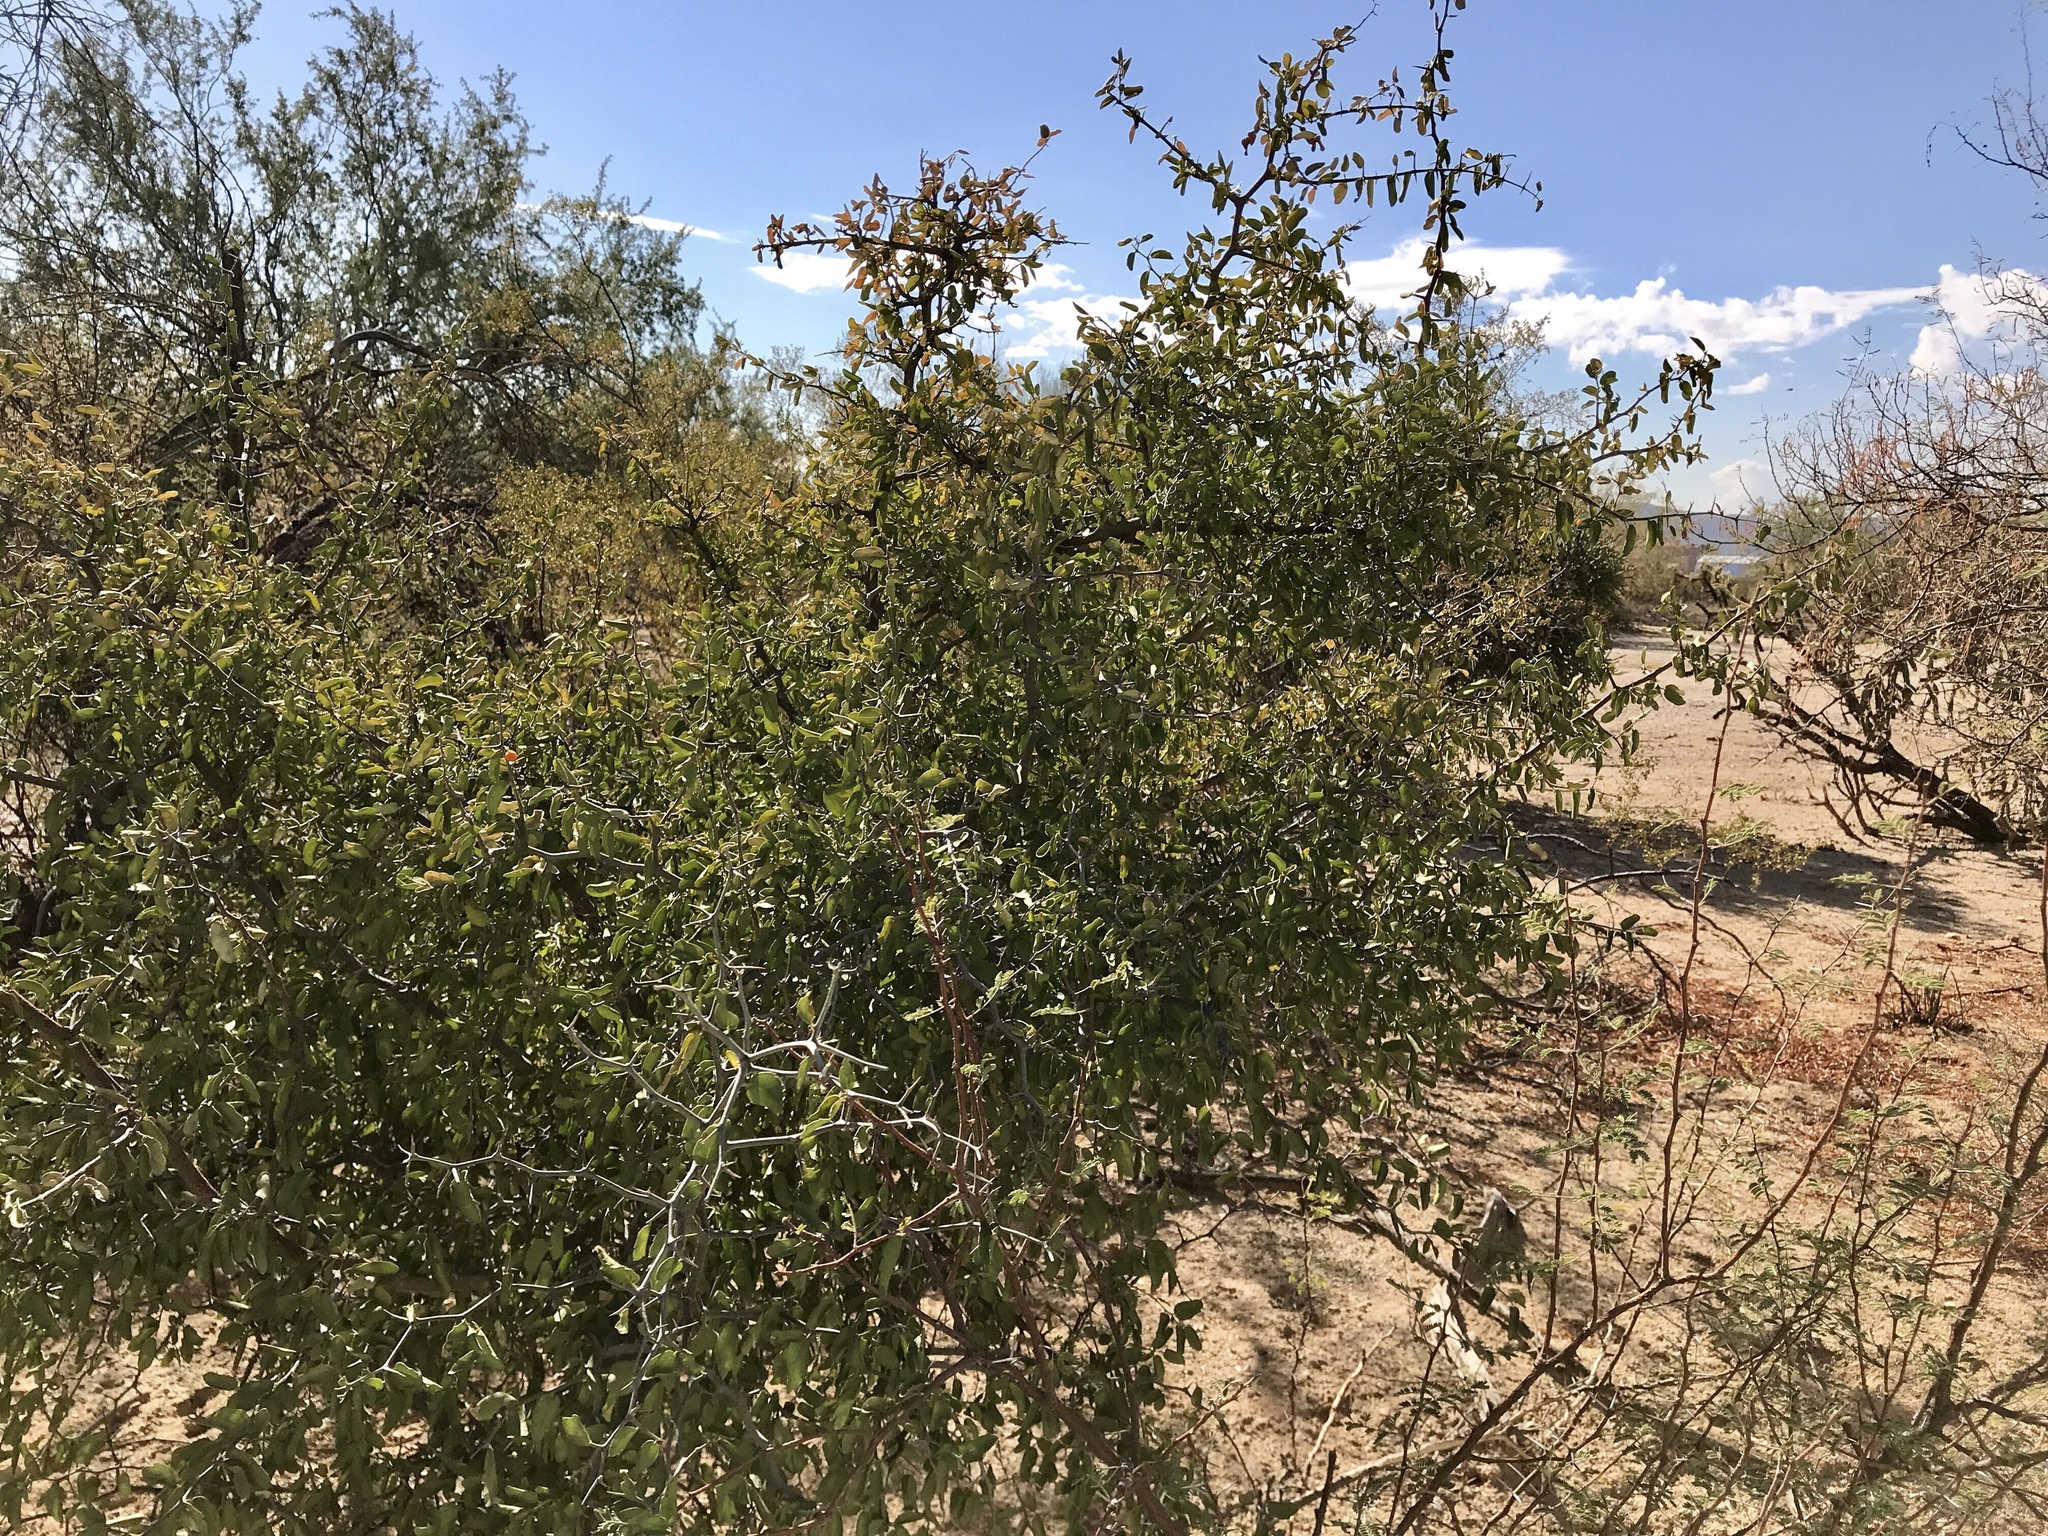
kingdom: Plantae
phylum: Tracheophyta
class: Magnoliopsida
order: Rosales
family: Cannabaceae
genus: Celtis
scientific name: Celtis pallida
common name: Desert hackberry
